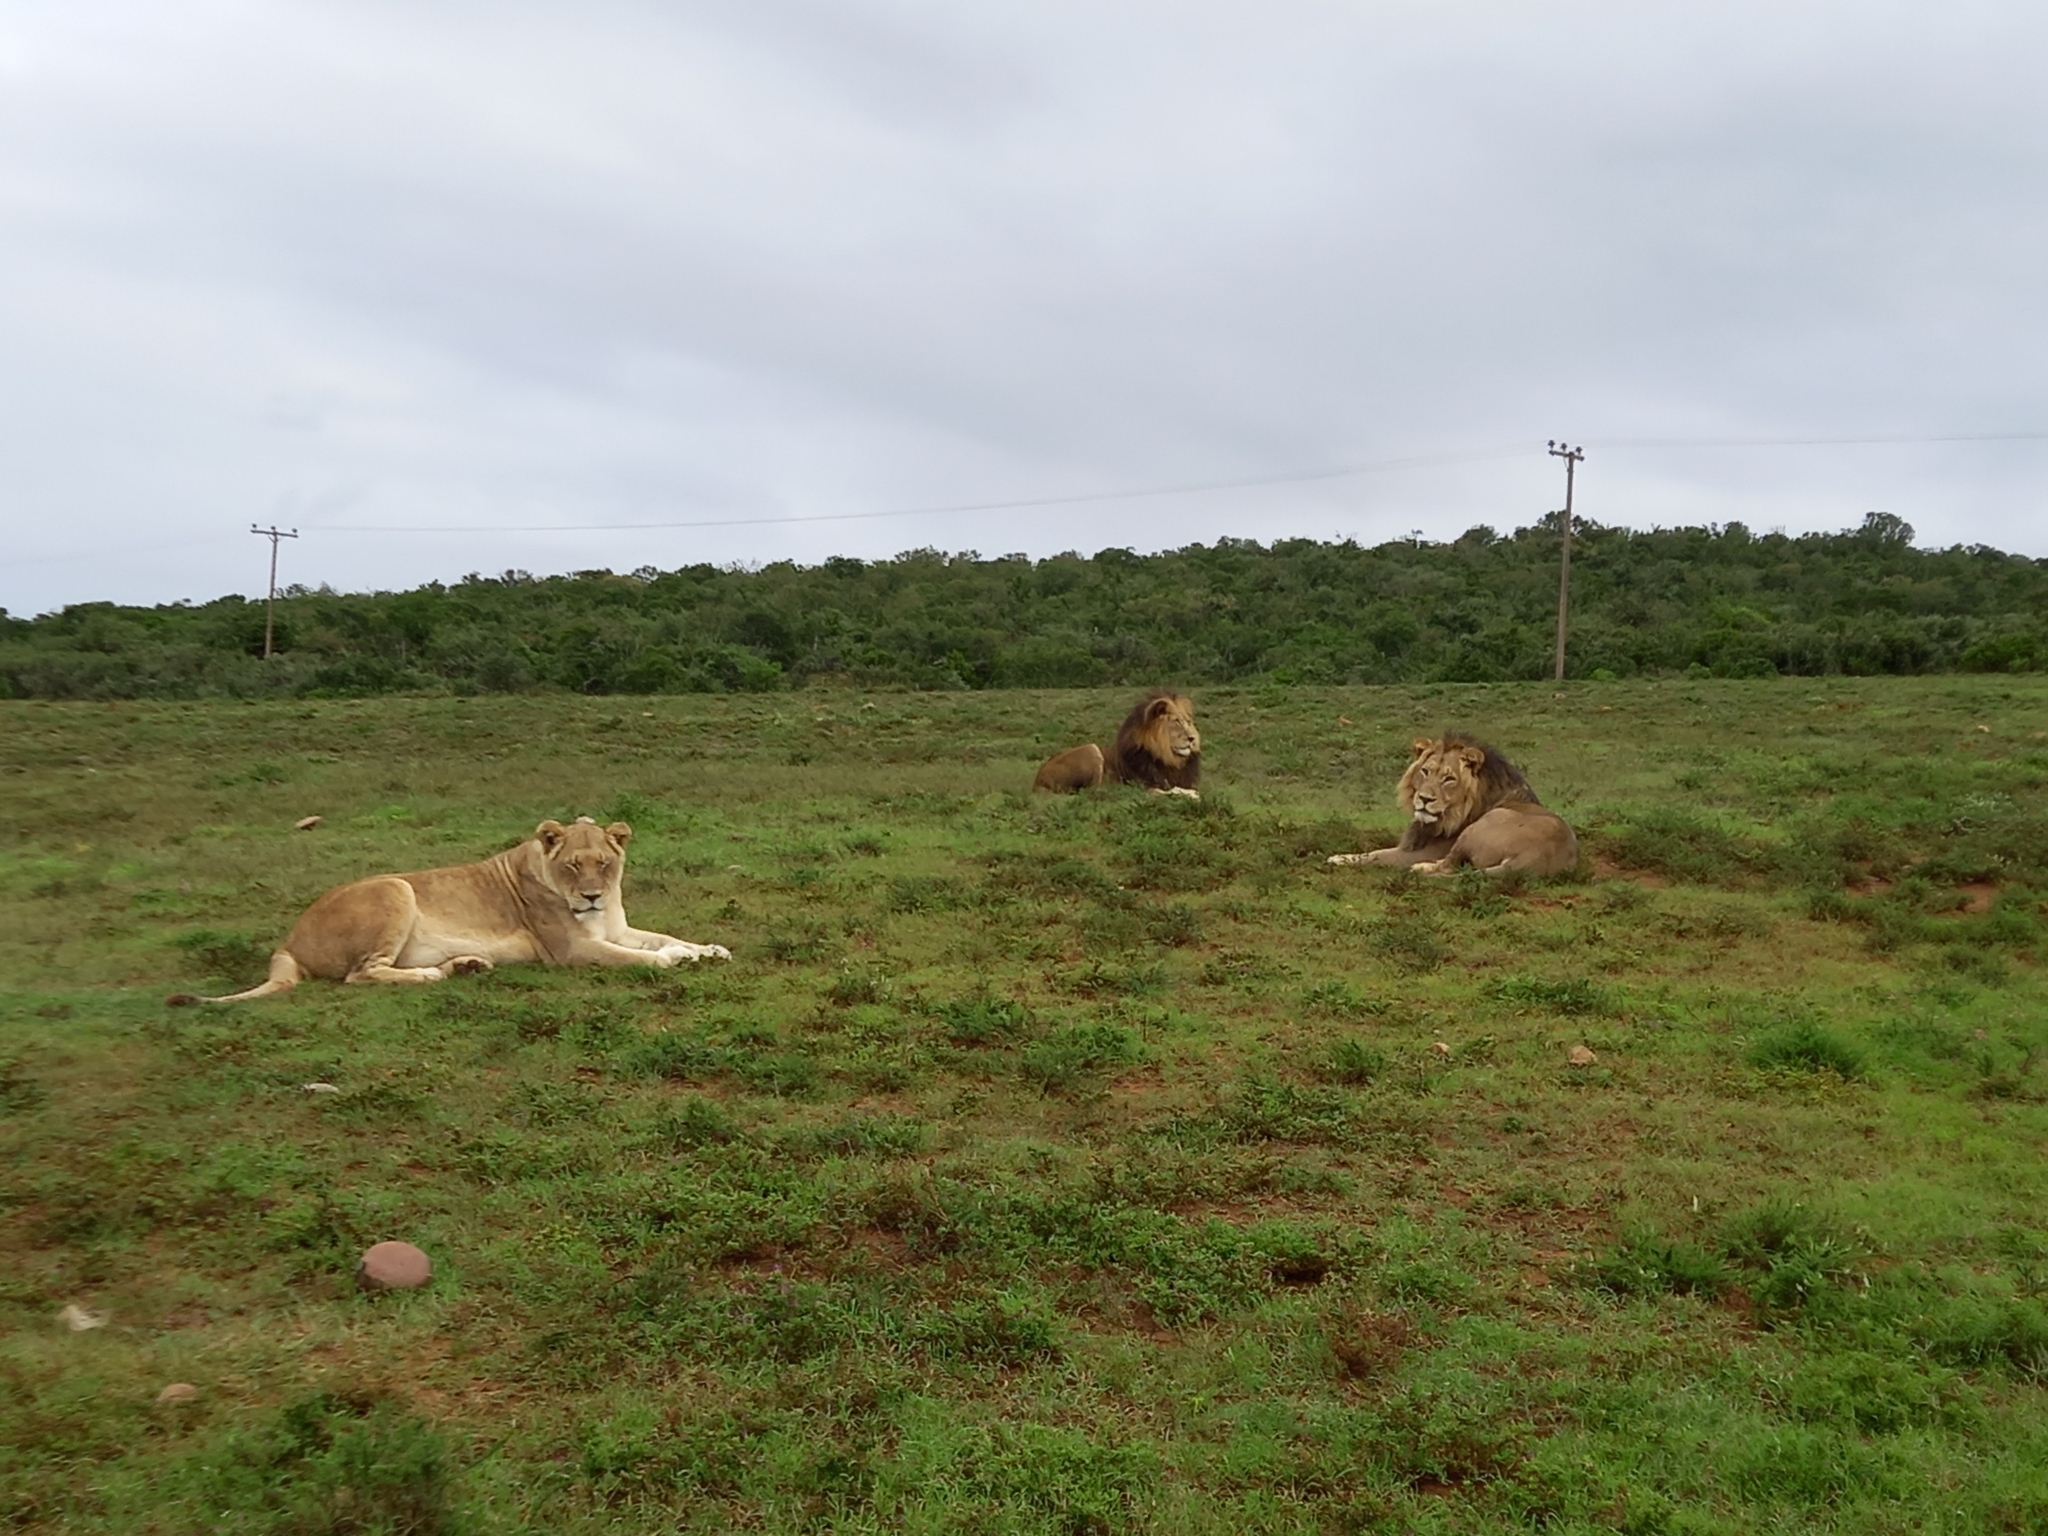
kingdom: Animalia
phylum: Chordata
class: Mammalia
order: Carnivora
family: Felidae
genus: Panthera
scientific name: Panthera leo
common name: Lion
